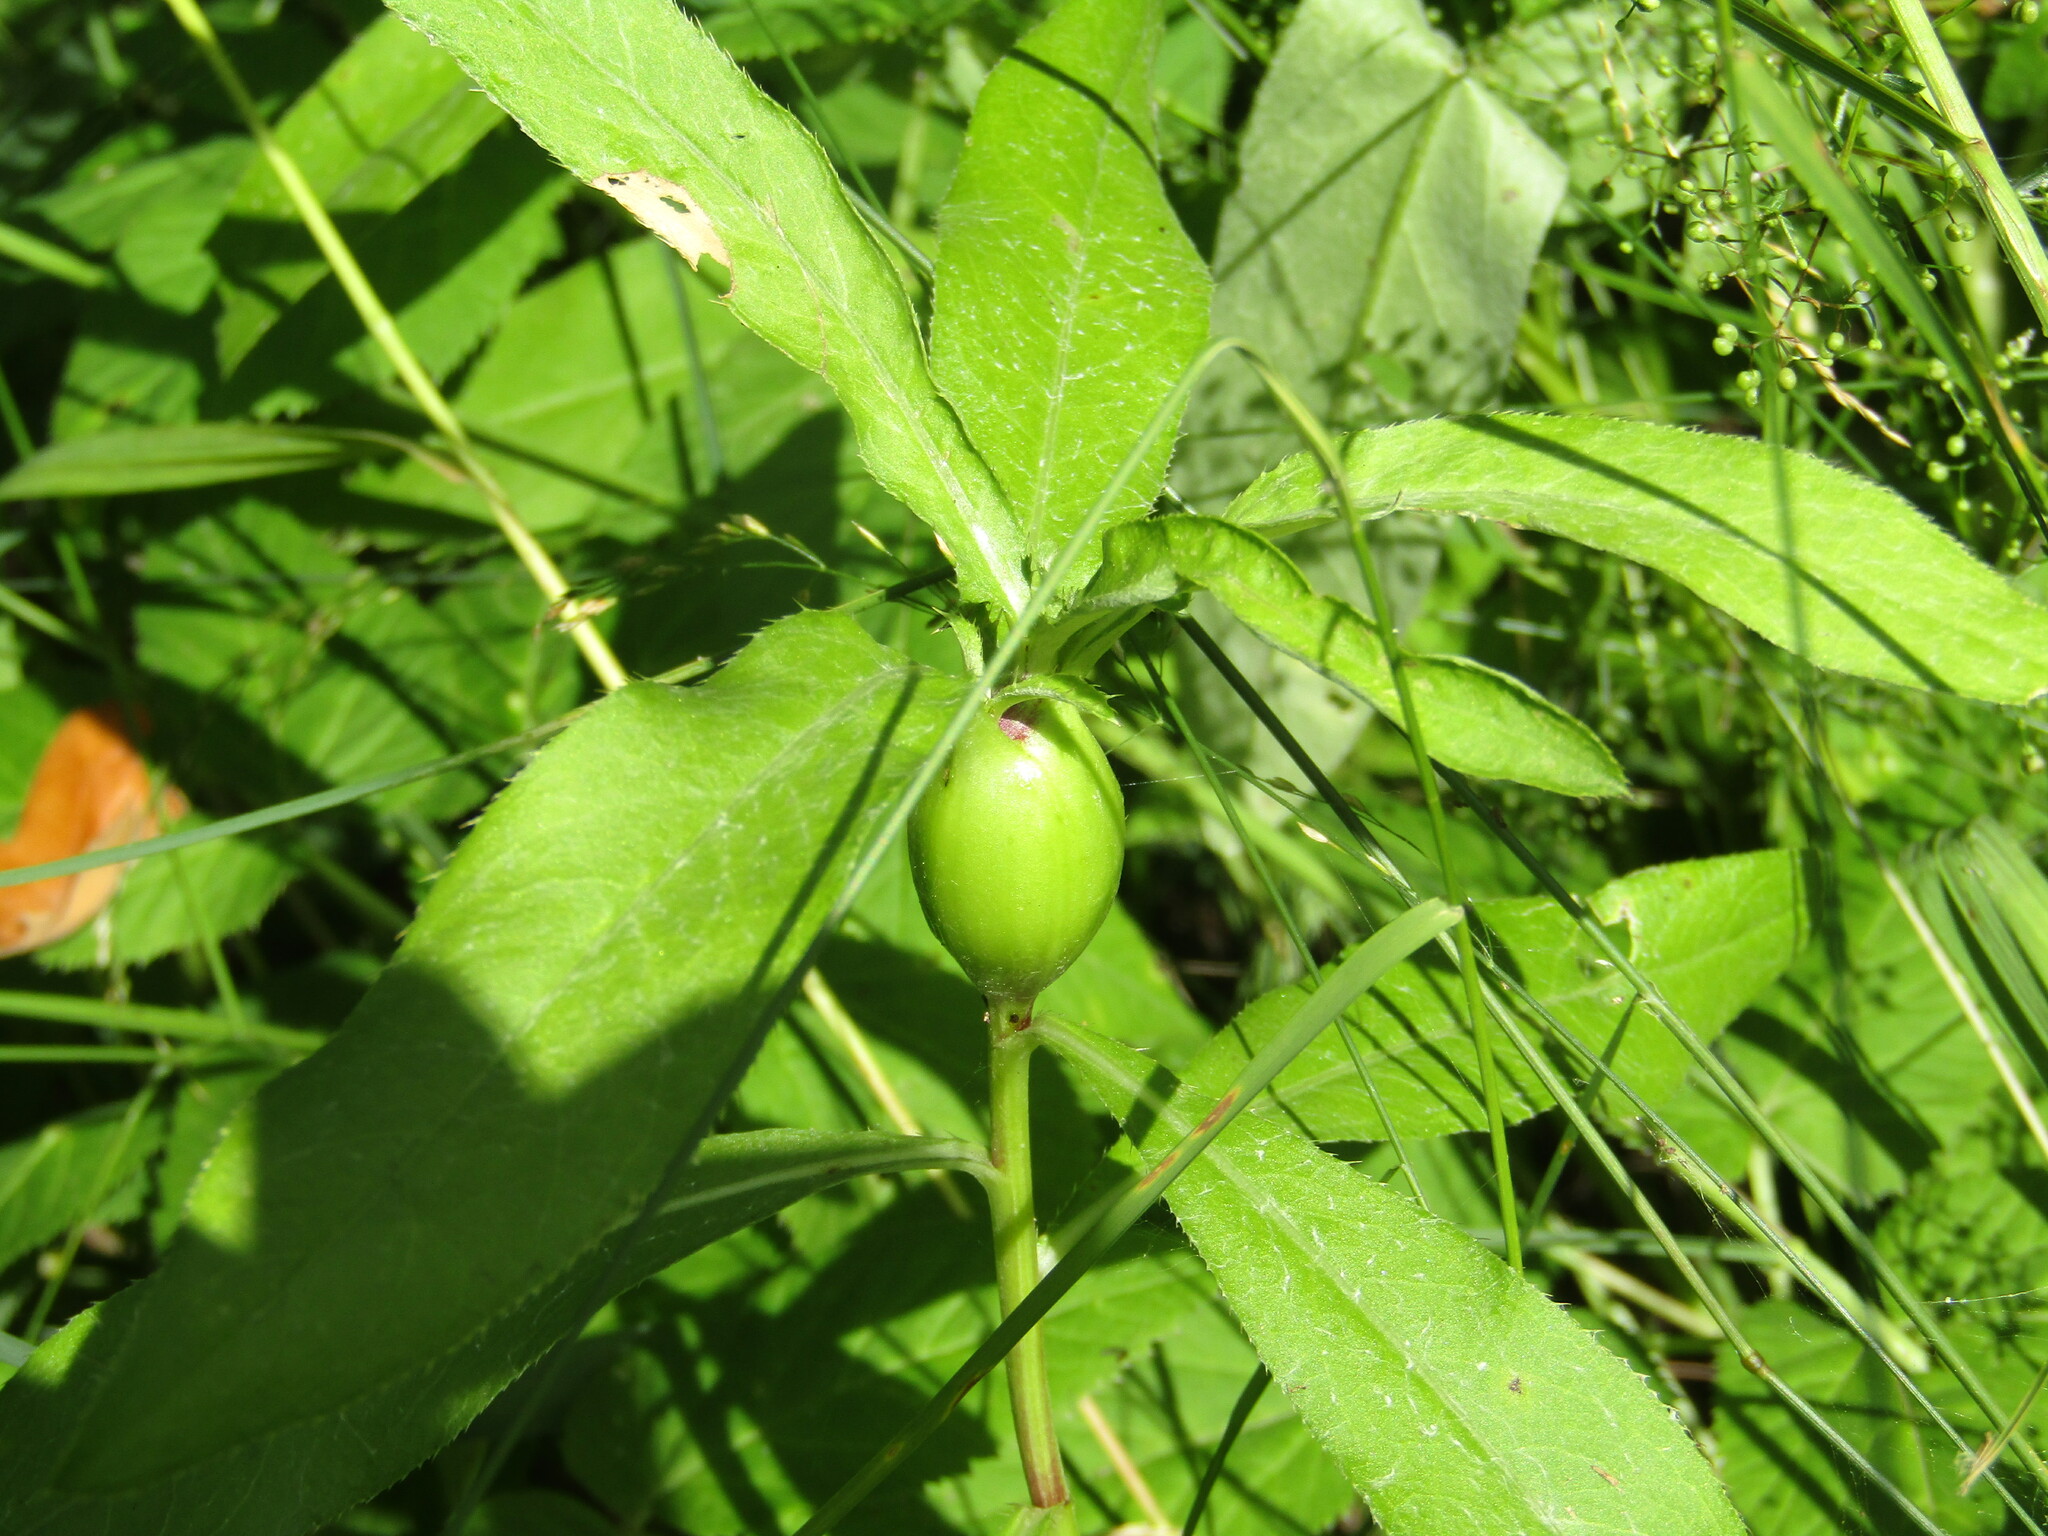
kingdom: Plantae
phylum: Tracheophyta
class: Magnoliopsida
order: Asterales
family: Asteraceae
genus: Cirsium
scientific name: Cirsium arvense
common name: Creeping thistle
